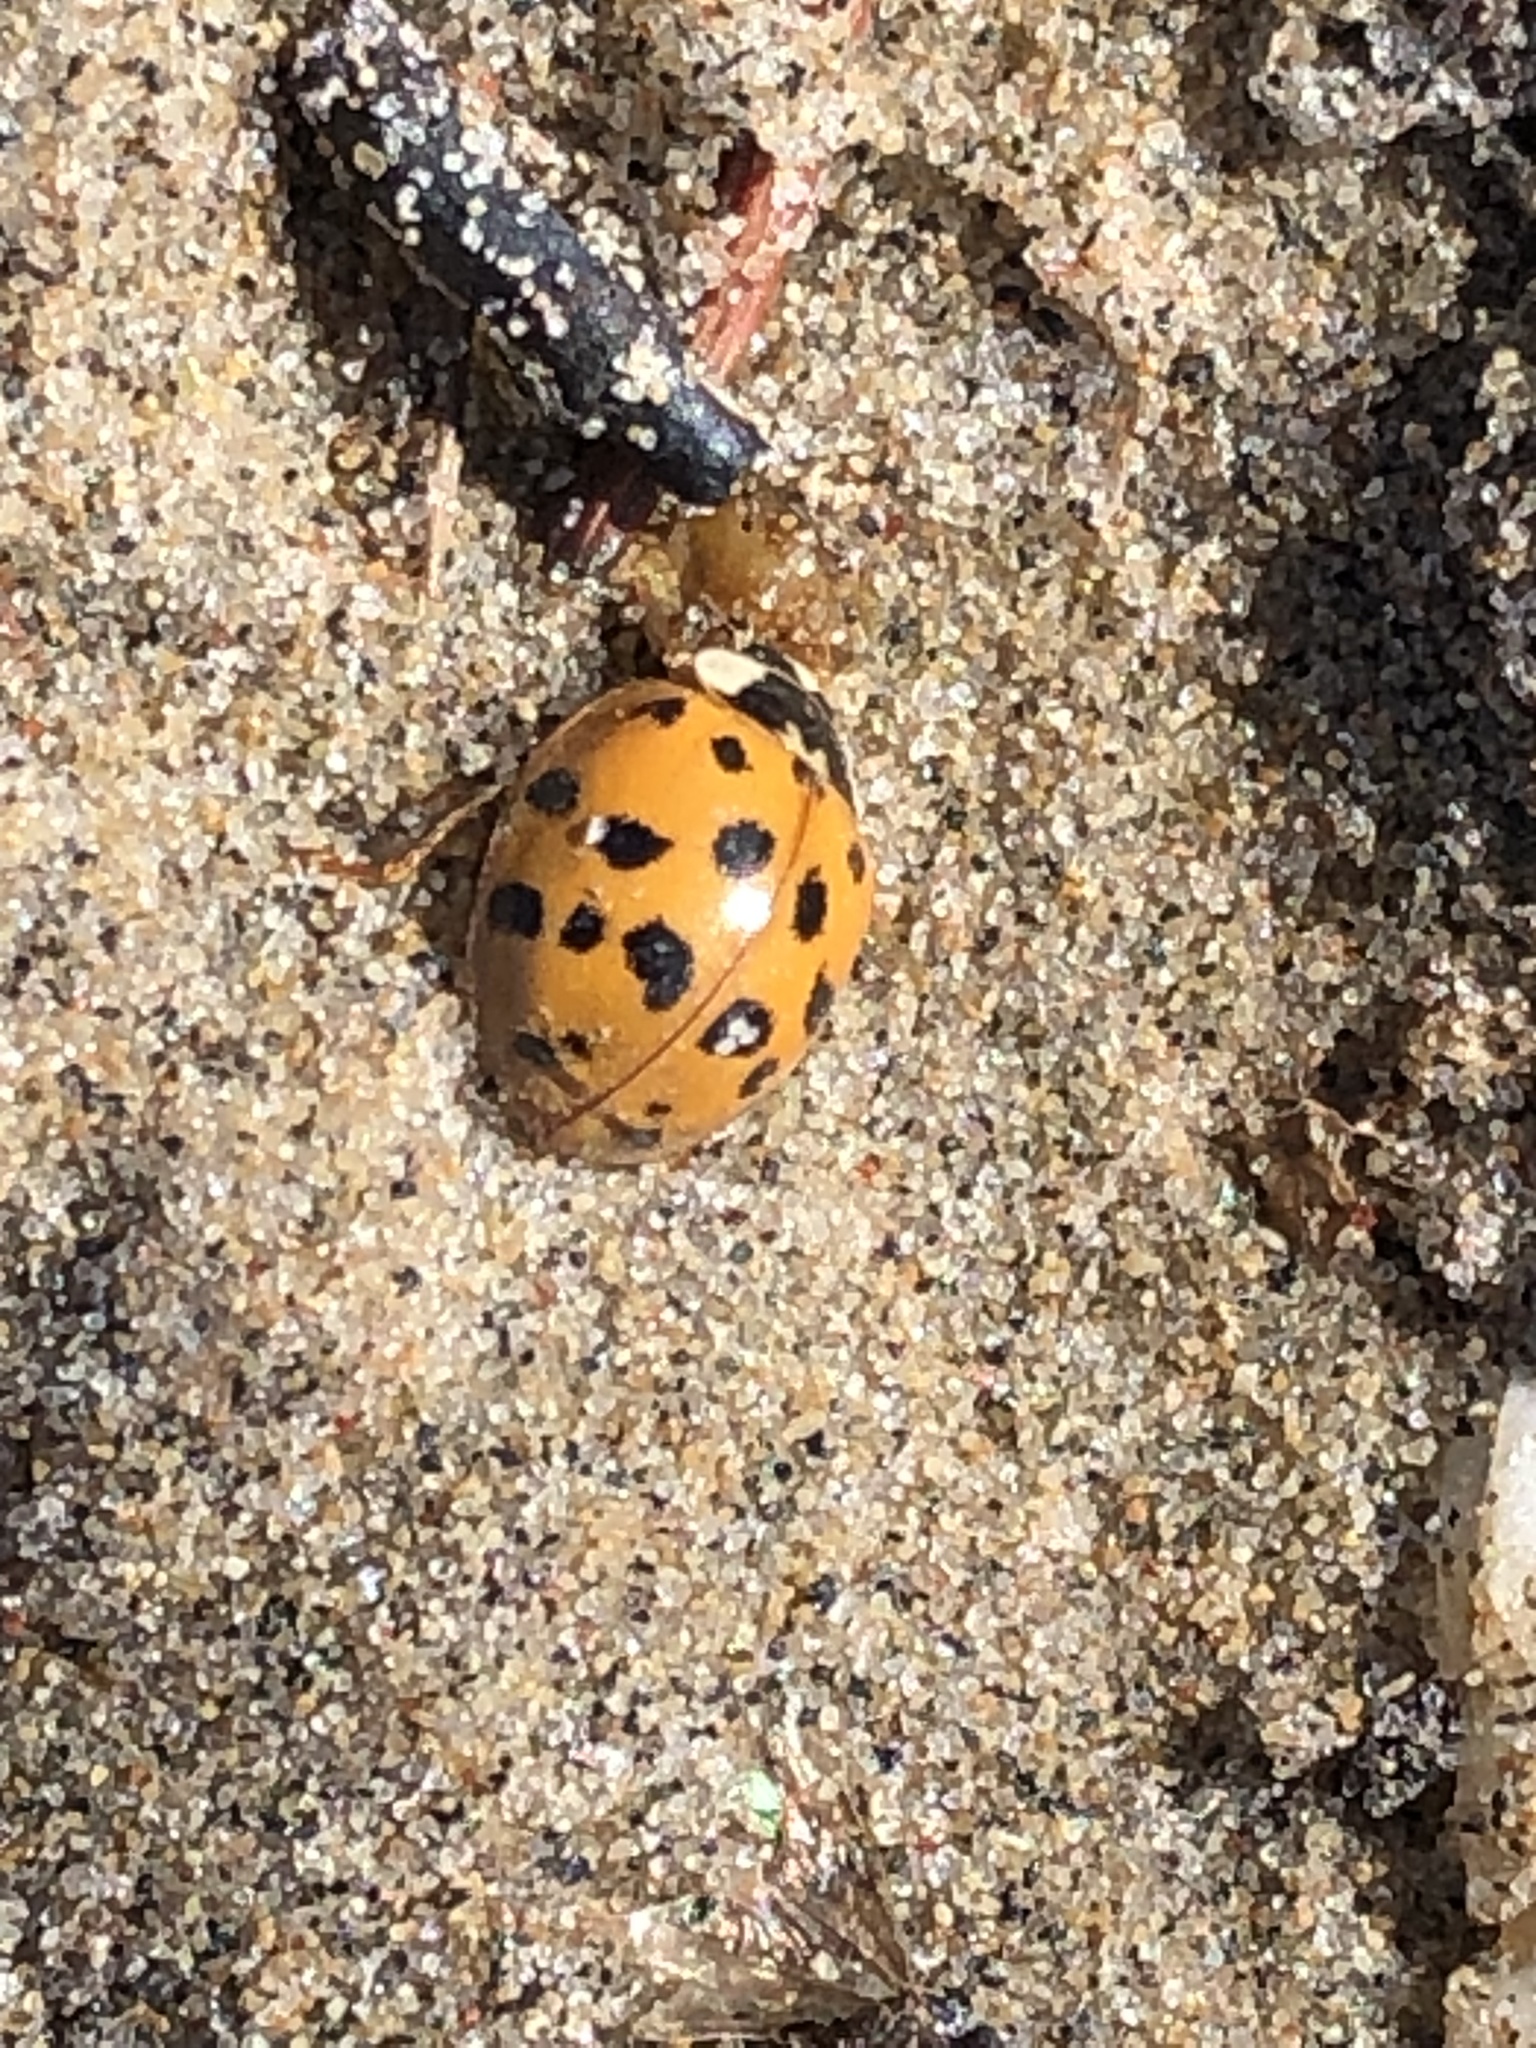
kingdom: Animalia
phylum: Arthropoda
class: Insecta
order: Coleoptera
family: Coccinellidae
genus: Harmonia
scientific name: Harmonia axyridis
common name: Harlequin ladybird
